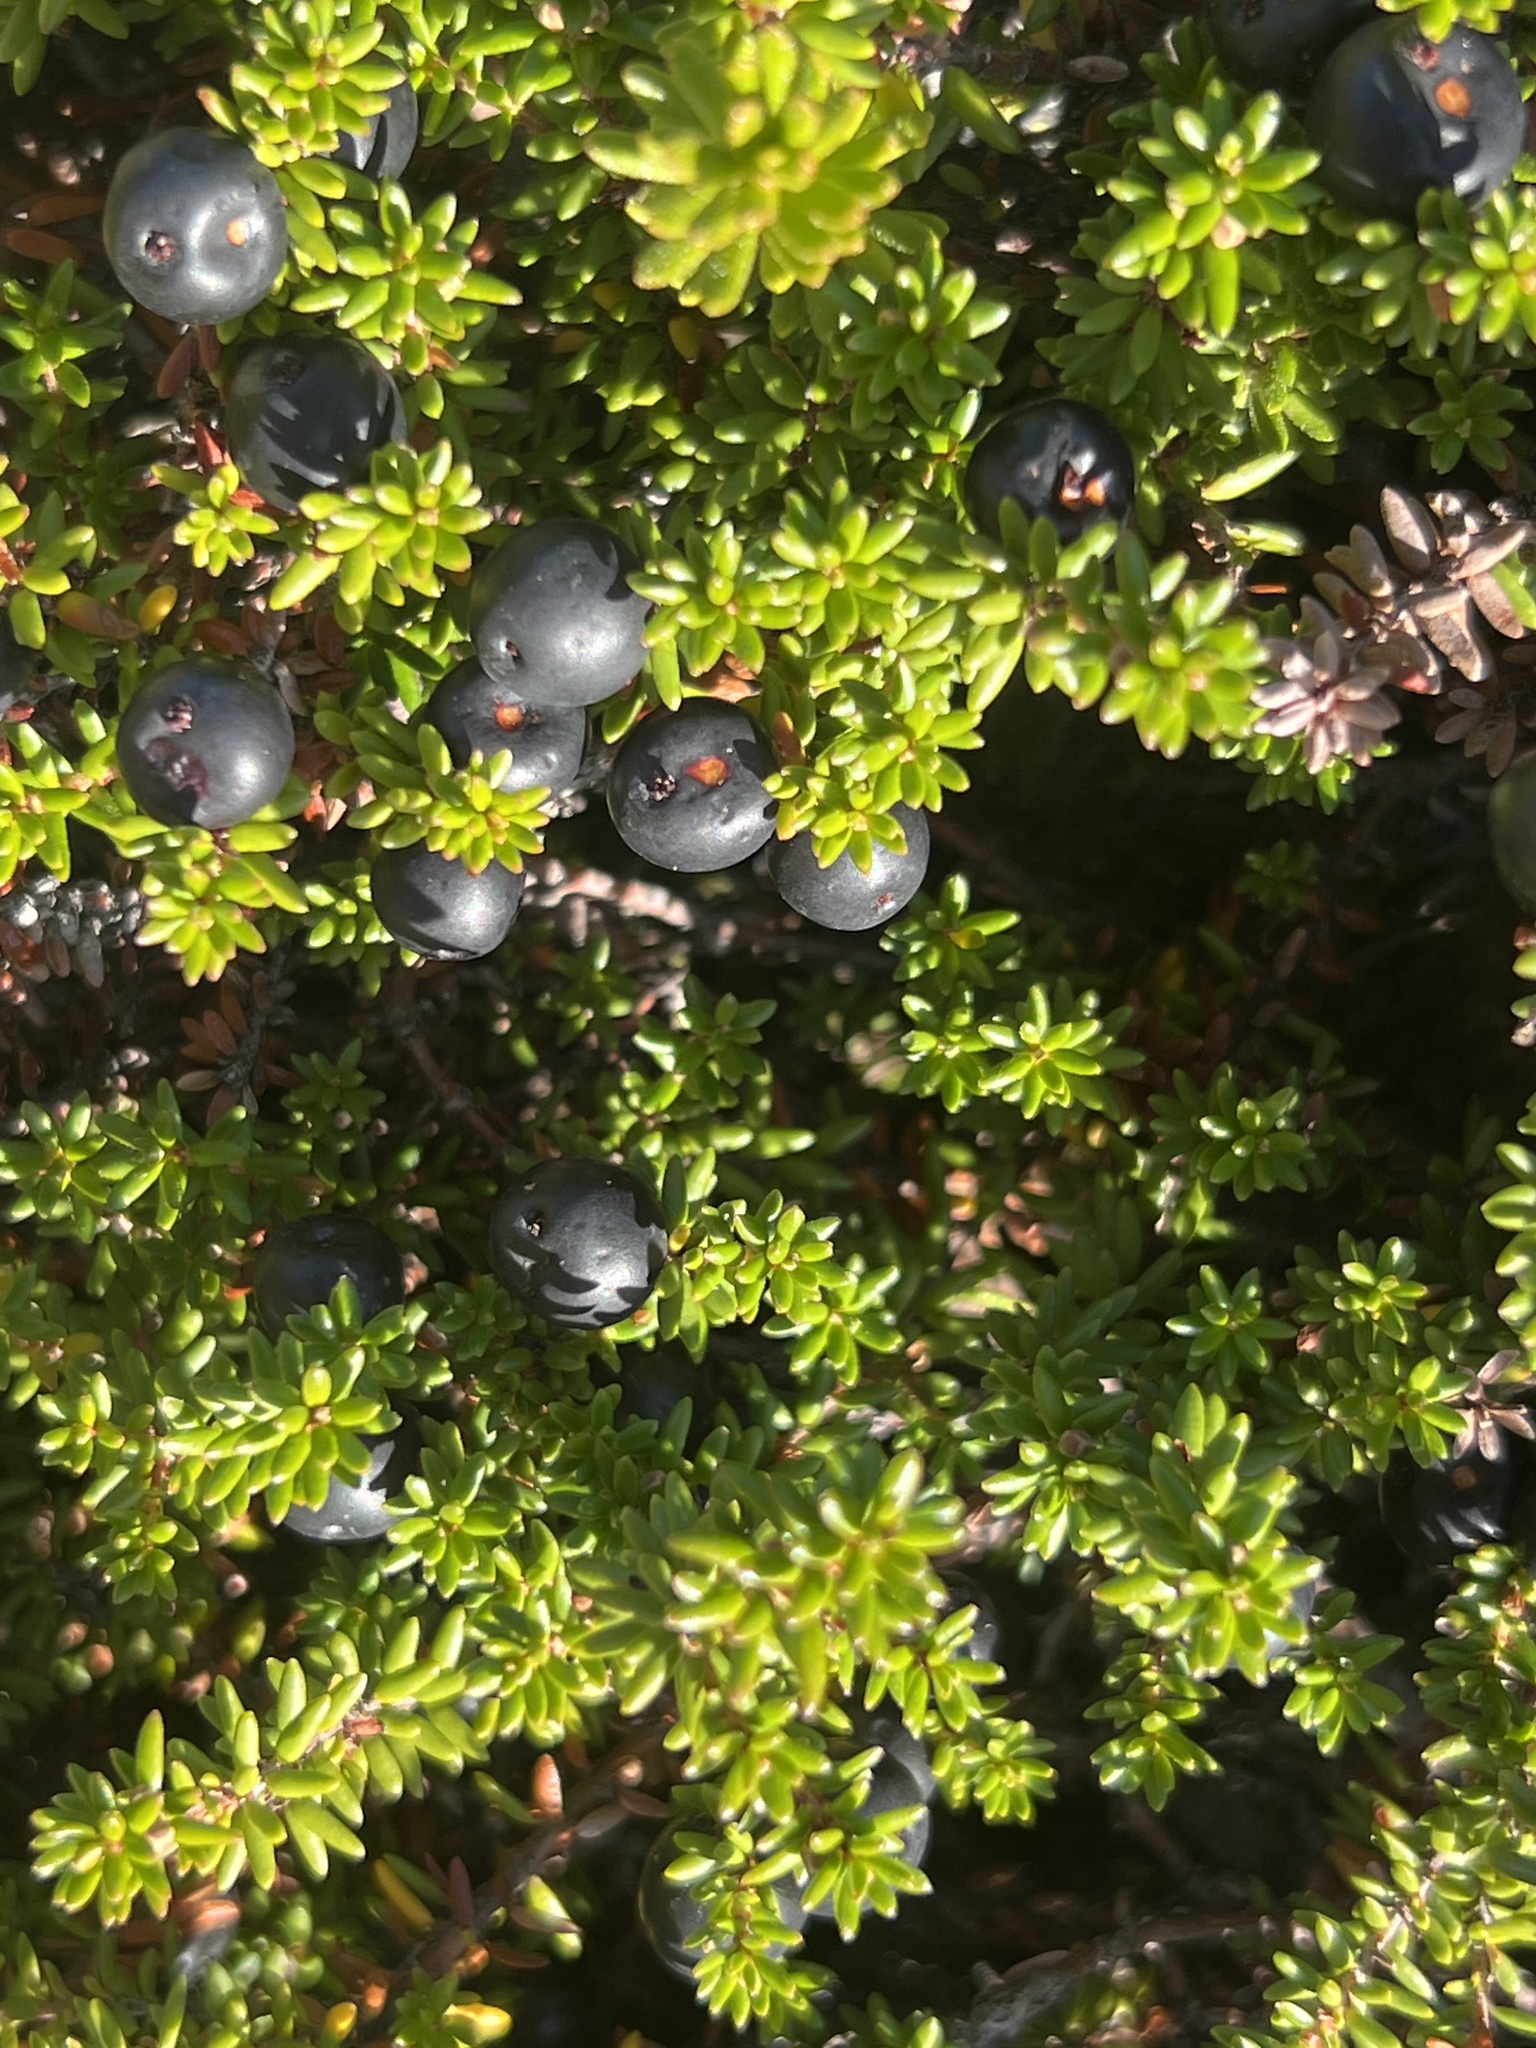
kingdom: Plantae
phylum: Tracheophyta
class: Magnoliopsida
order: Ericales
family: Ericaceae
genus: Empetrum
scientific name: Empetrum nigrum
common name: Black crowberry
